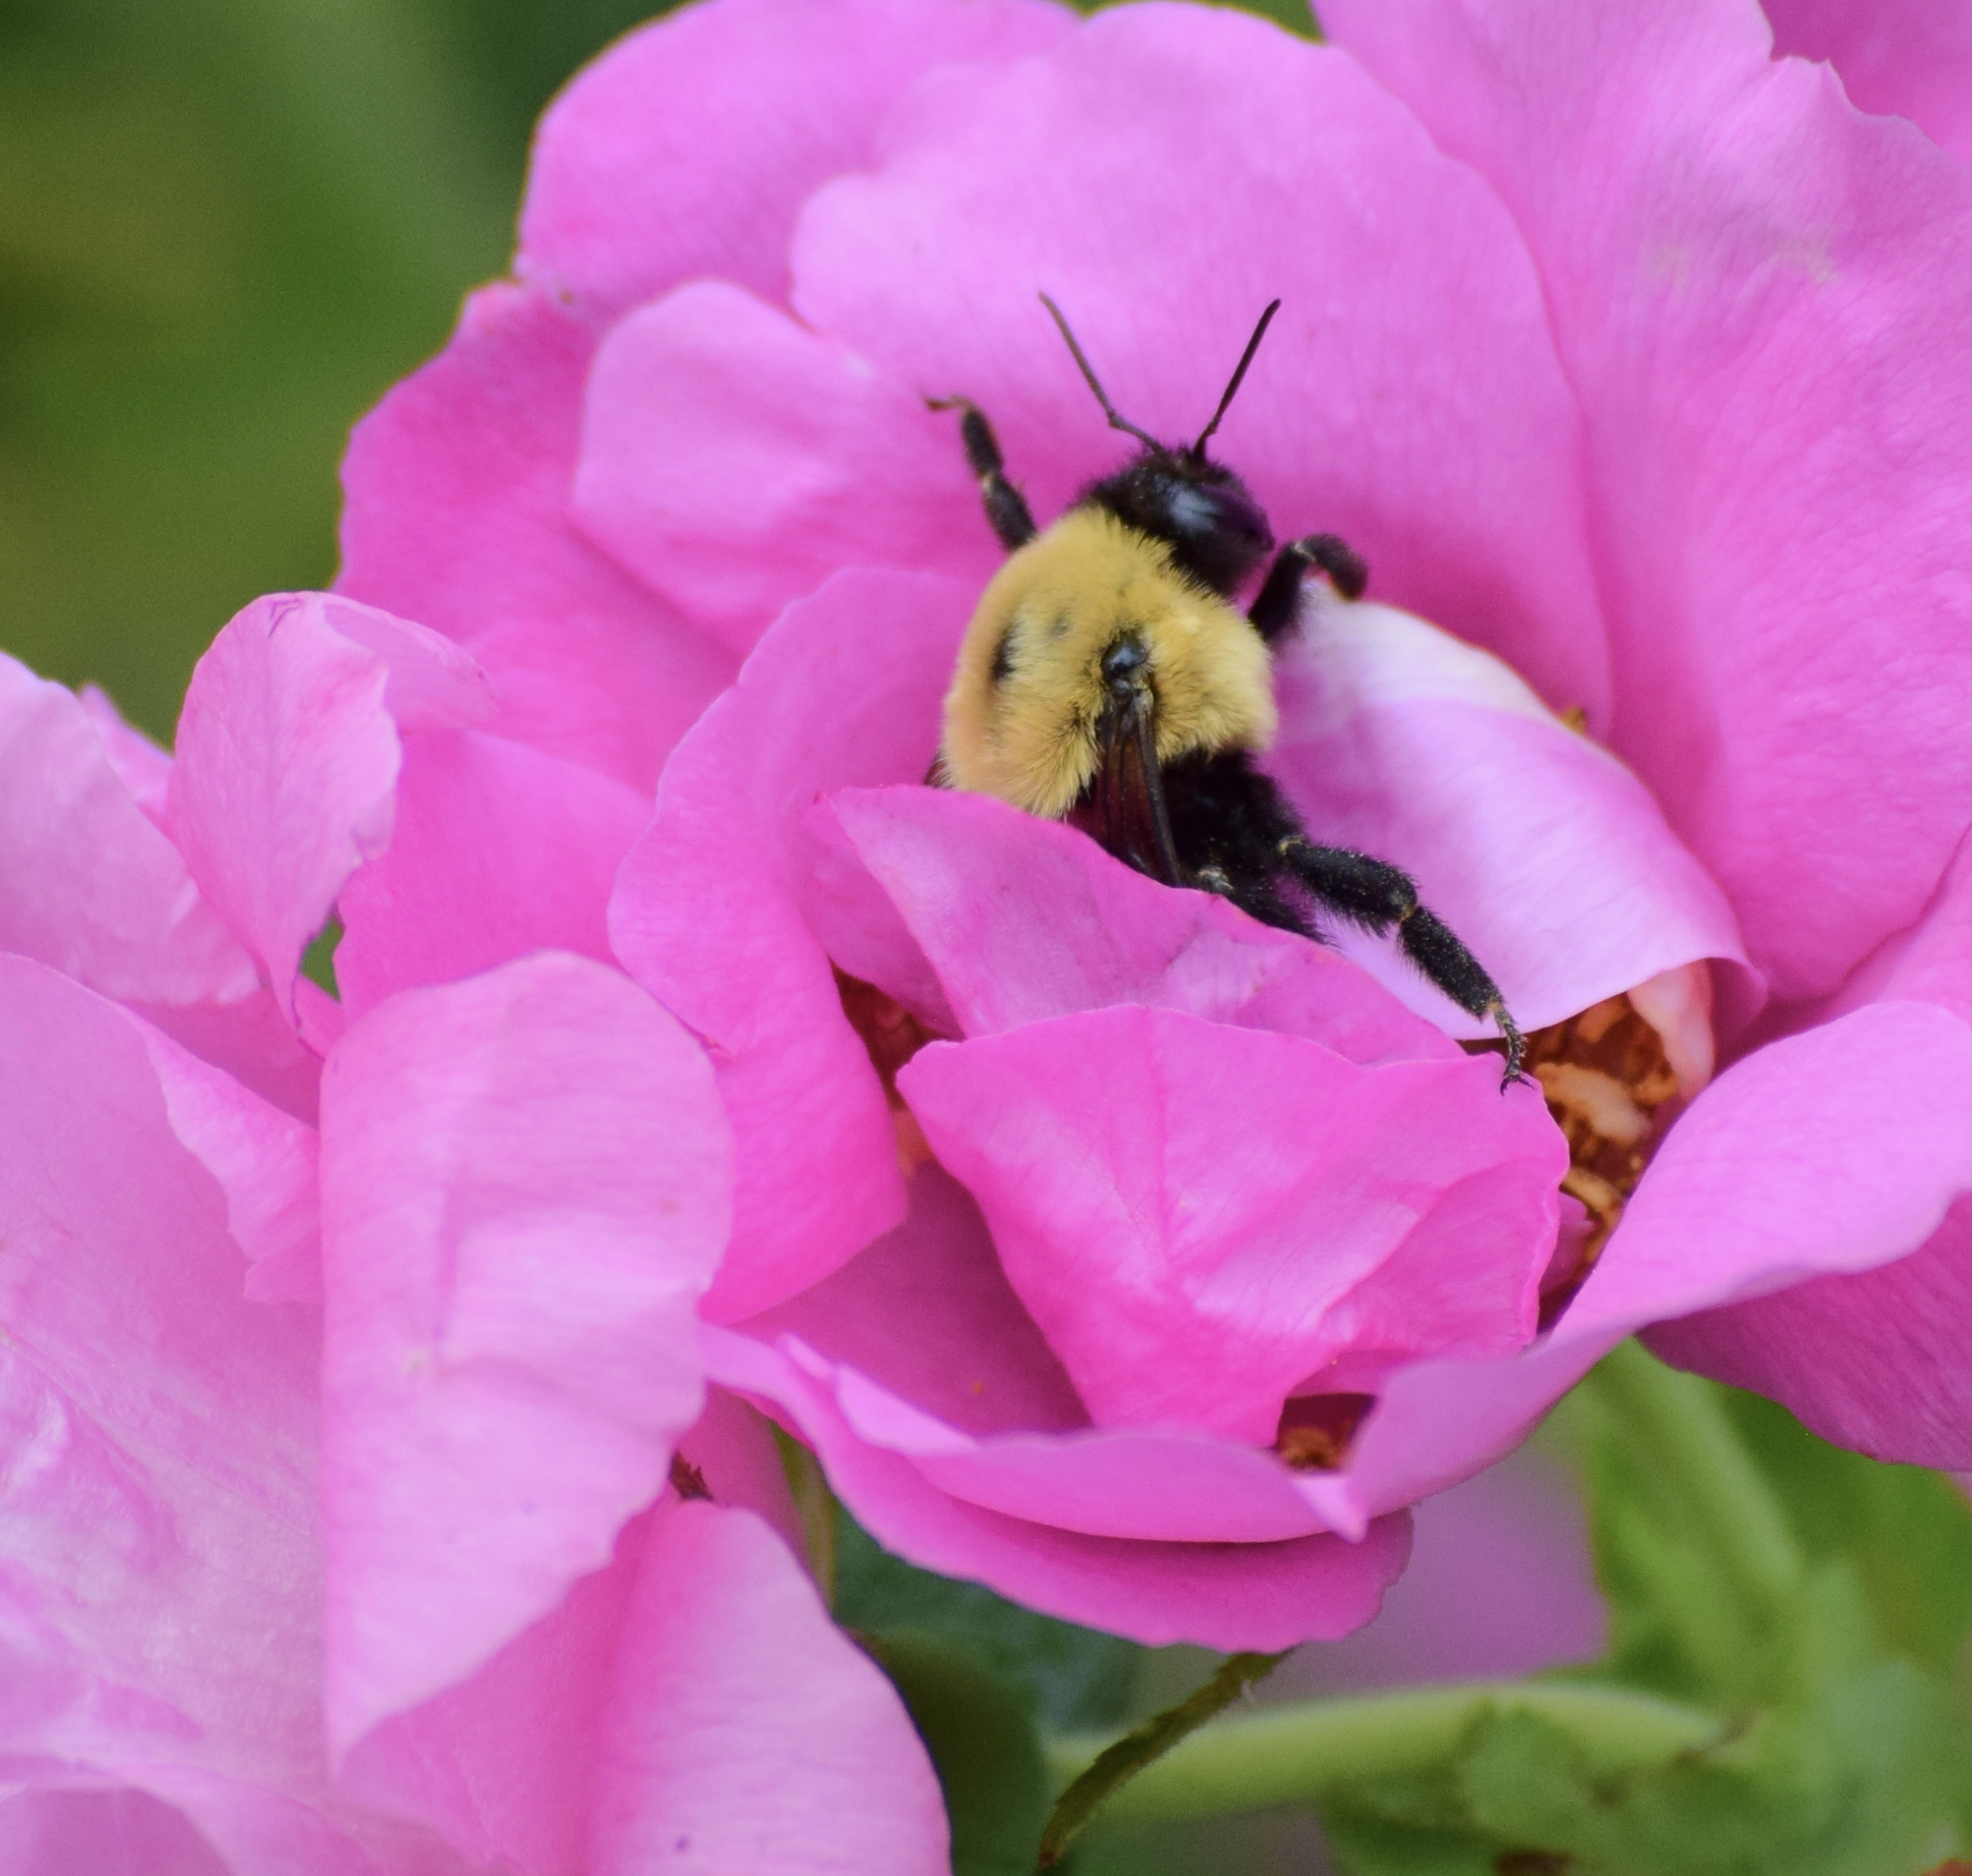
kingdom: Animalia
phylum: Arthropoda
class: Insecta
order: Hymenoptera
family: Apidae
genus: Bombus
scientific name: Bombus griseocollis
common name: Brown-belted bumble bee
